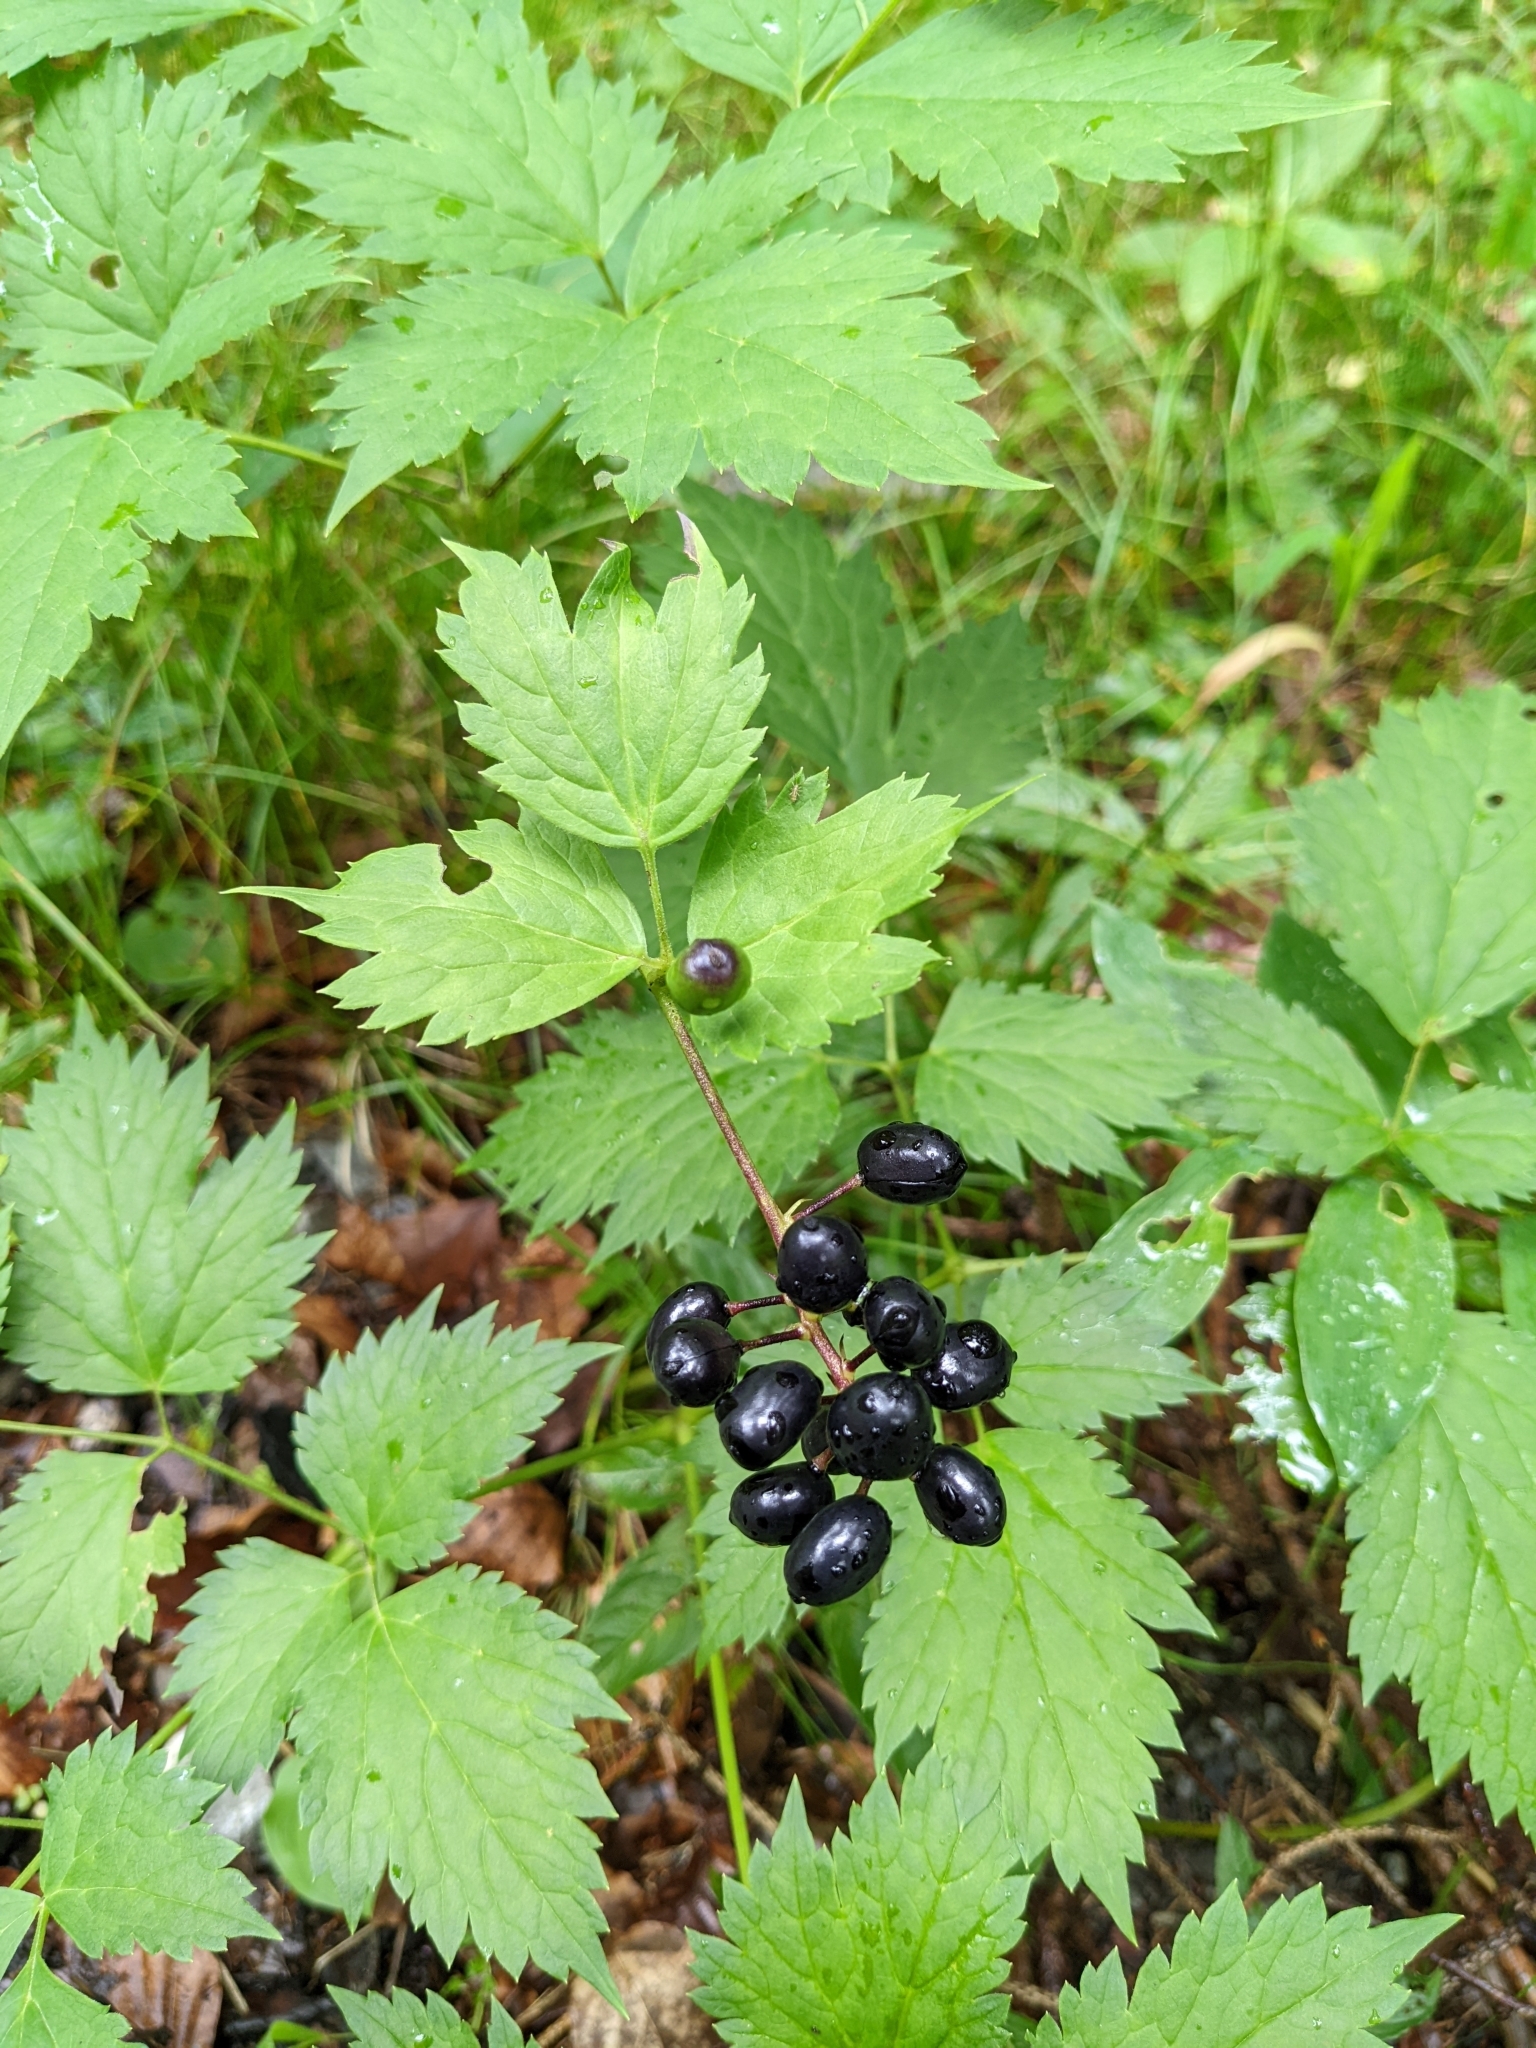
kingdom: Plantae
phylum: Tracheophyta
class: Magnoliopsida
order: Ranunculales
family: Ranunculaceae
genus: Actaea
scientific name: Actaea spicata
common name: Baneberry
